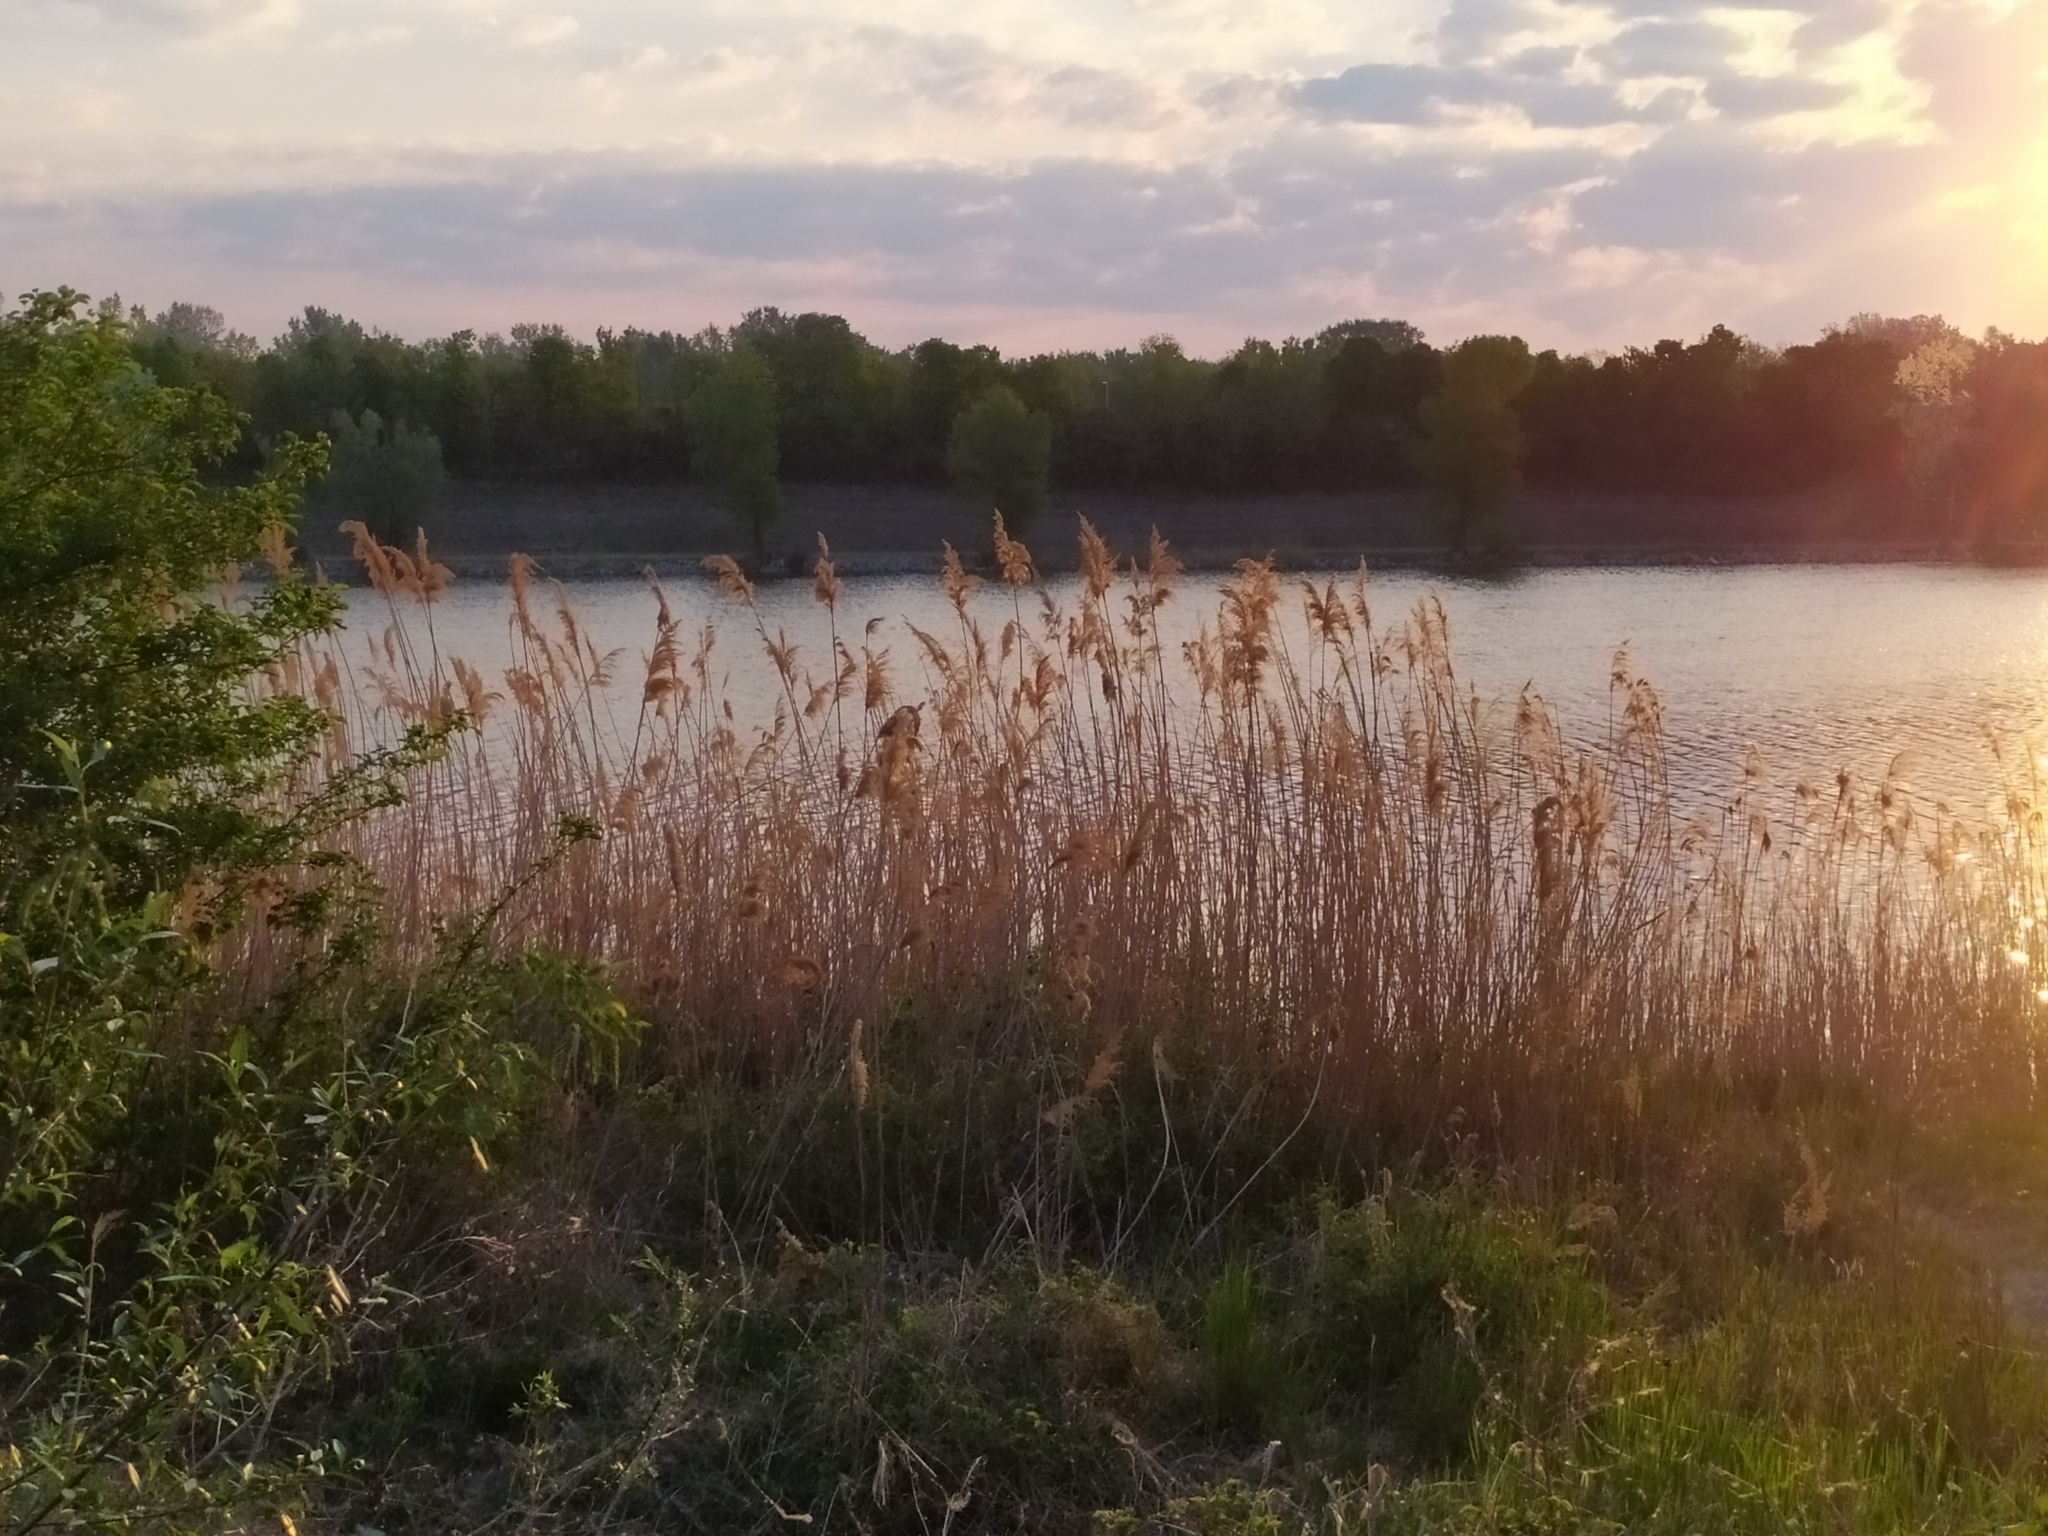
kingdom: Plantae
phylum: Tracheophyta
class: Liliopsida
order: Poales
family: Poaceae
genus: Phragmites
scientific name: Phragmites australis
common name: Common reed
